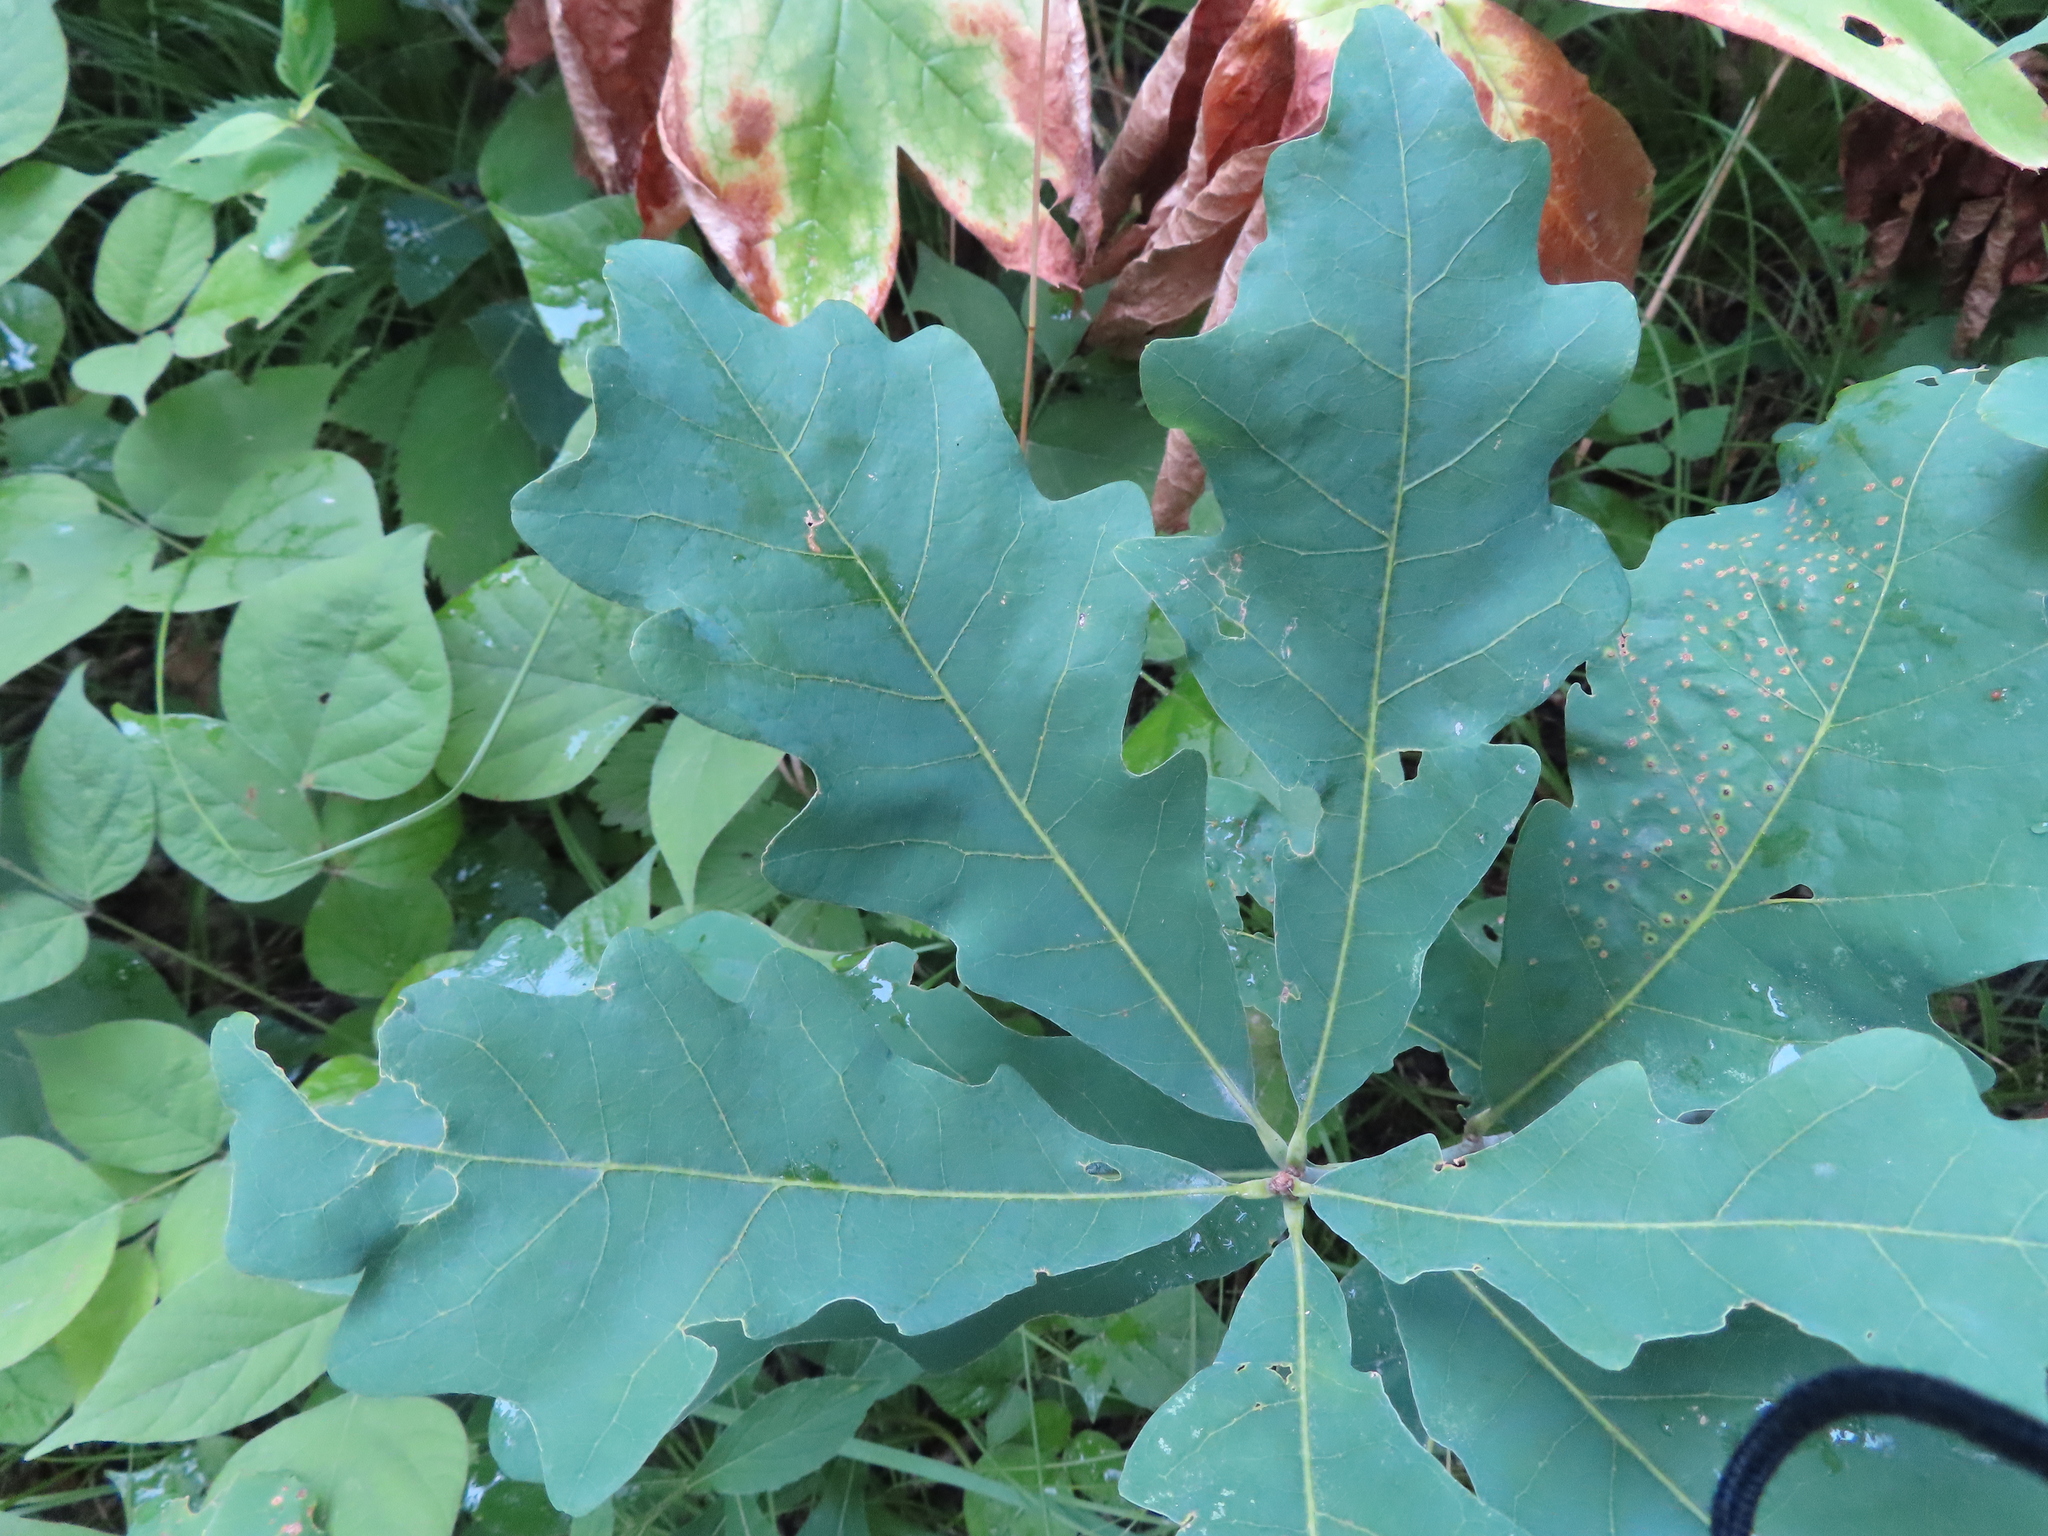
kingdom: Animalia
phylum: Arthropoda
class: Insecta
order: Hymenoptera
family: Cynipidae
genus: Neuroterus
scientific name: Neuroterus
